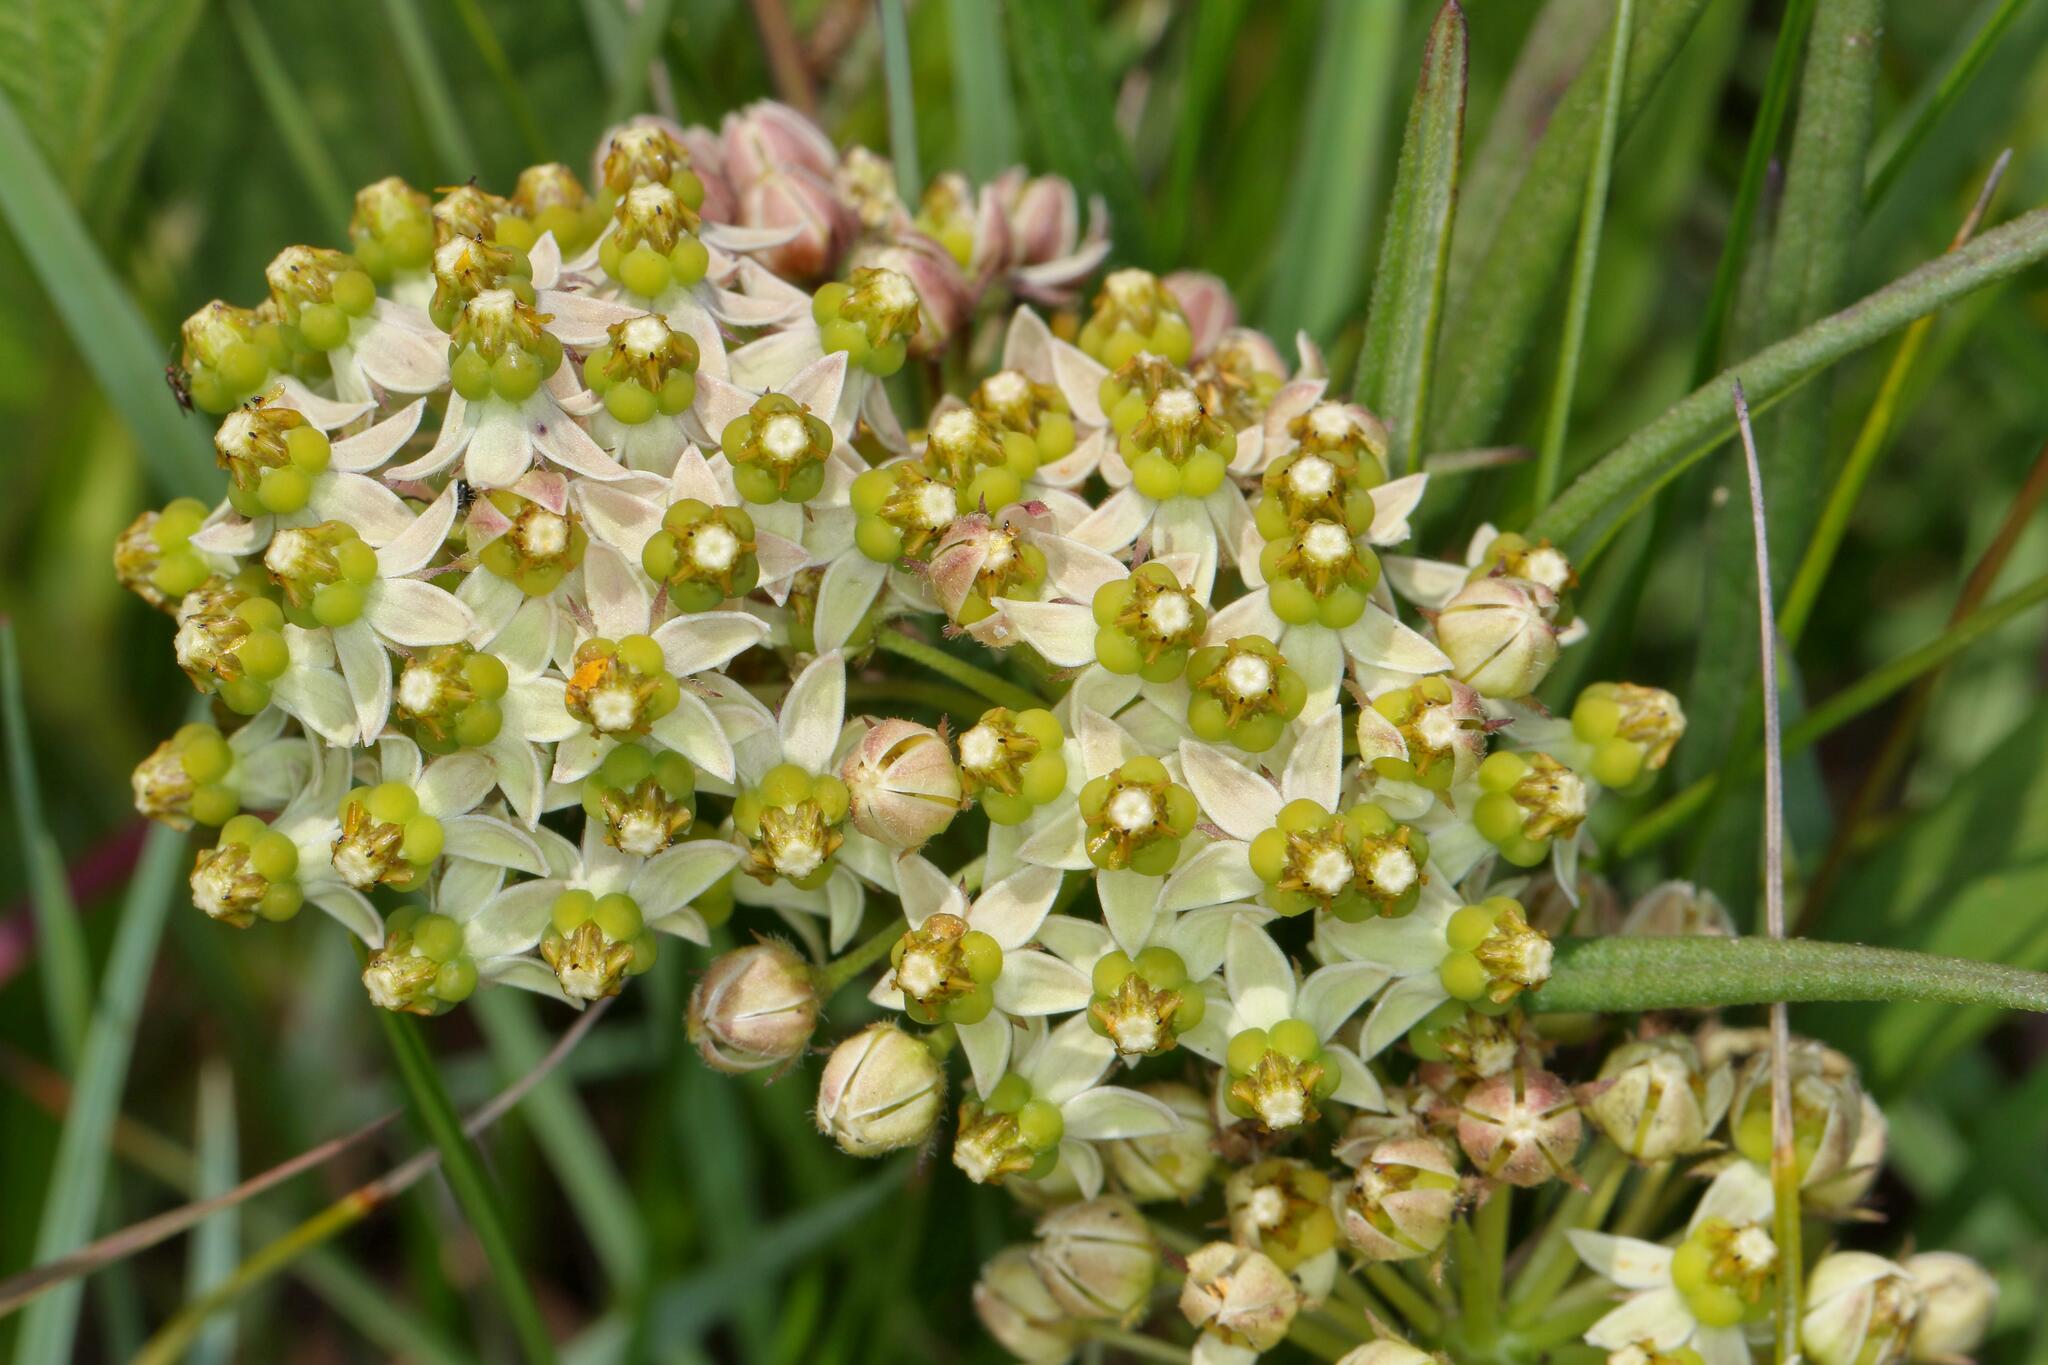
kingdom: Plantae
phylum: Tracheophyta
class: Magnoliopsida
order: Gentianales
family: Apocynaceae
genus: Xysmalobium
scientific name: Xysmalobium involucratum
